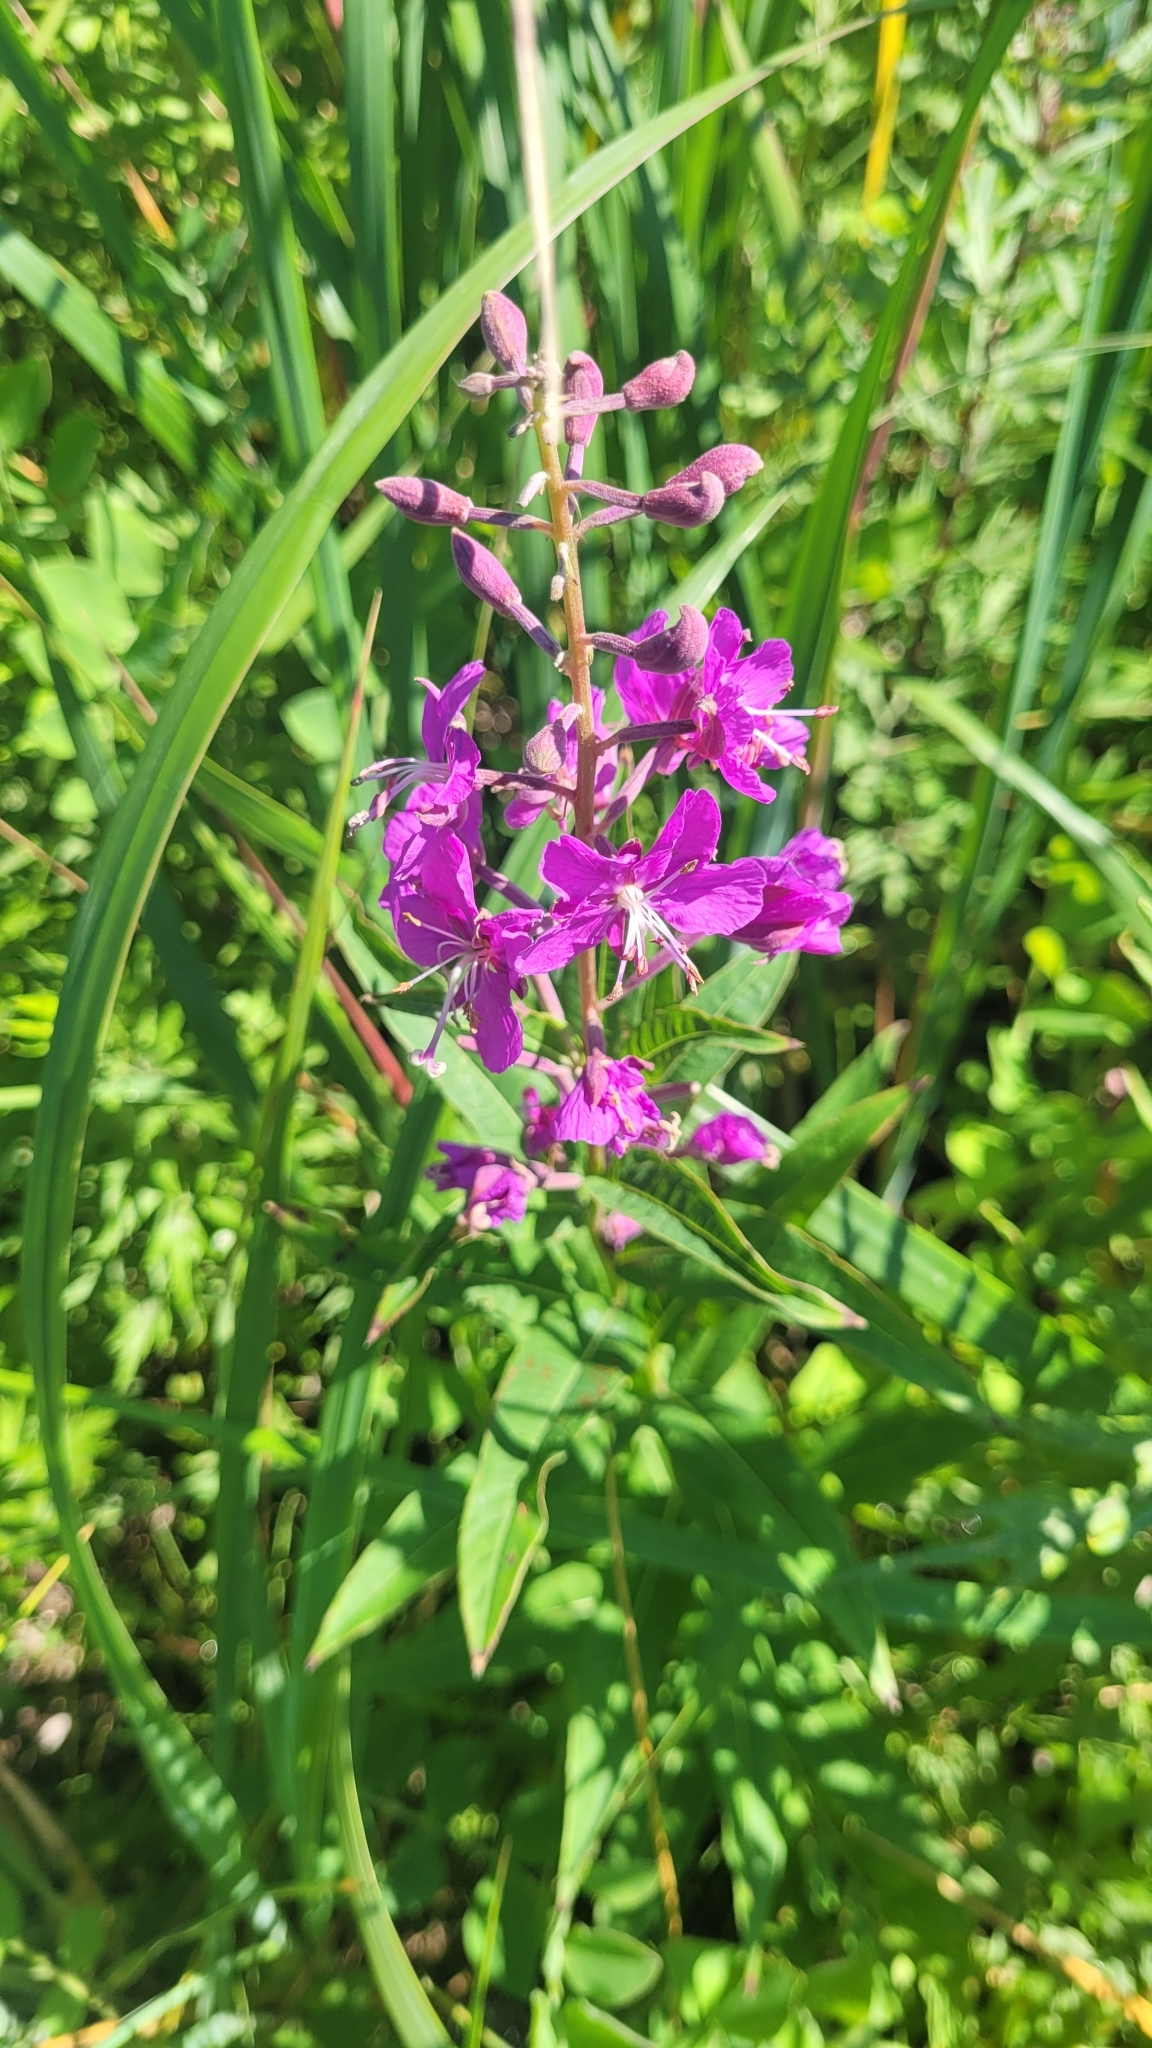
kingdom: Plantae
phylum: Tracheophyta
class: Magnoliopsida
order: Myrtales
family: Onagraceae
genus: Chamaenerion
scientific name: Chamaenerion angustifolium
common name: Fireweed
